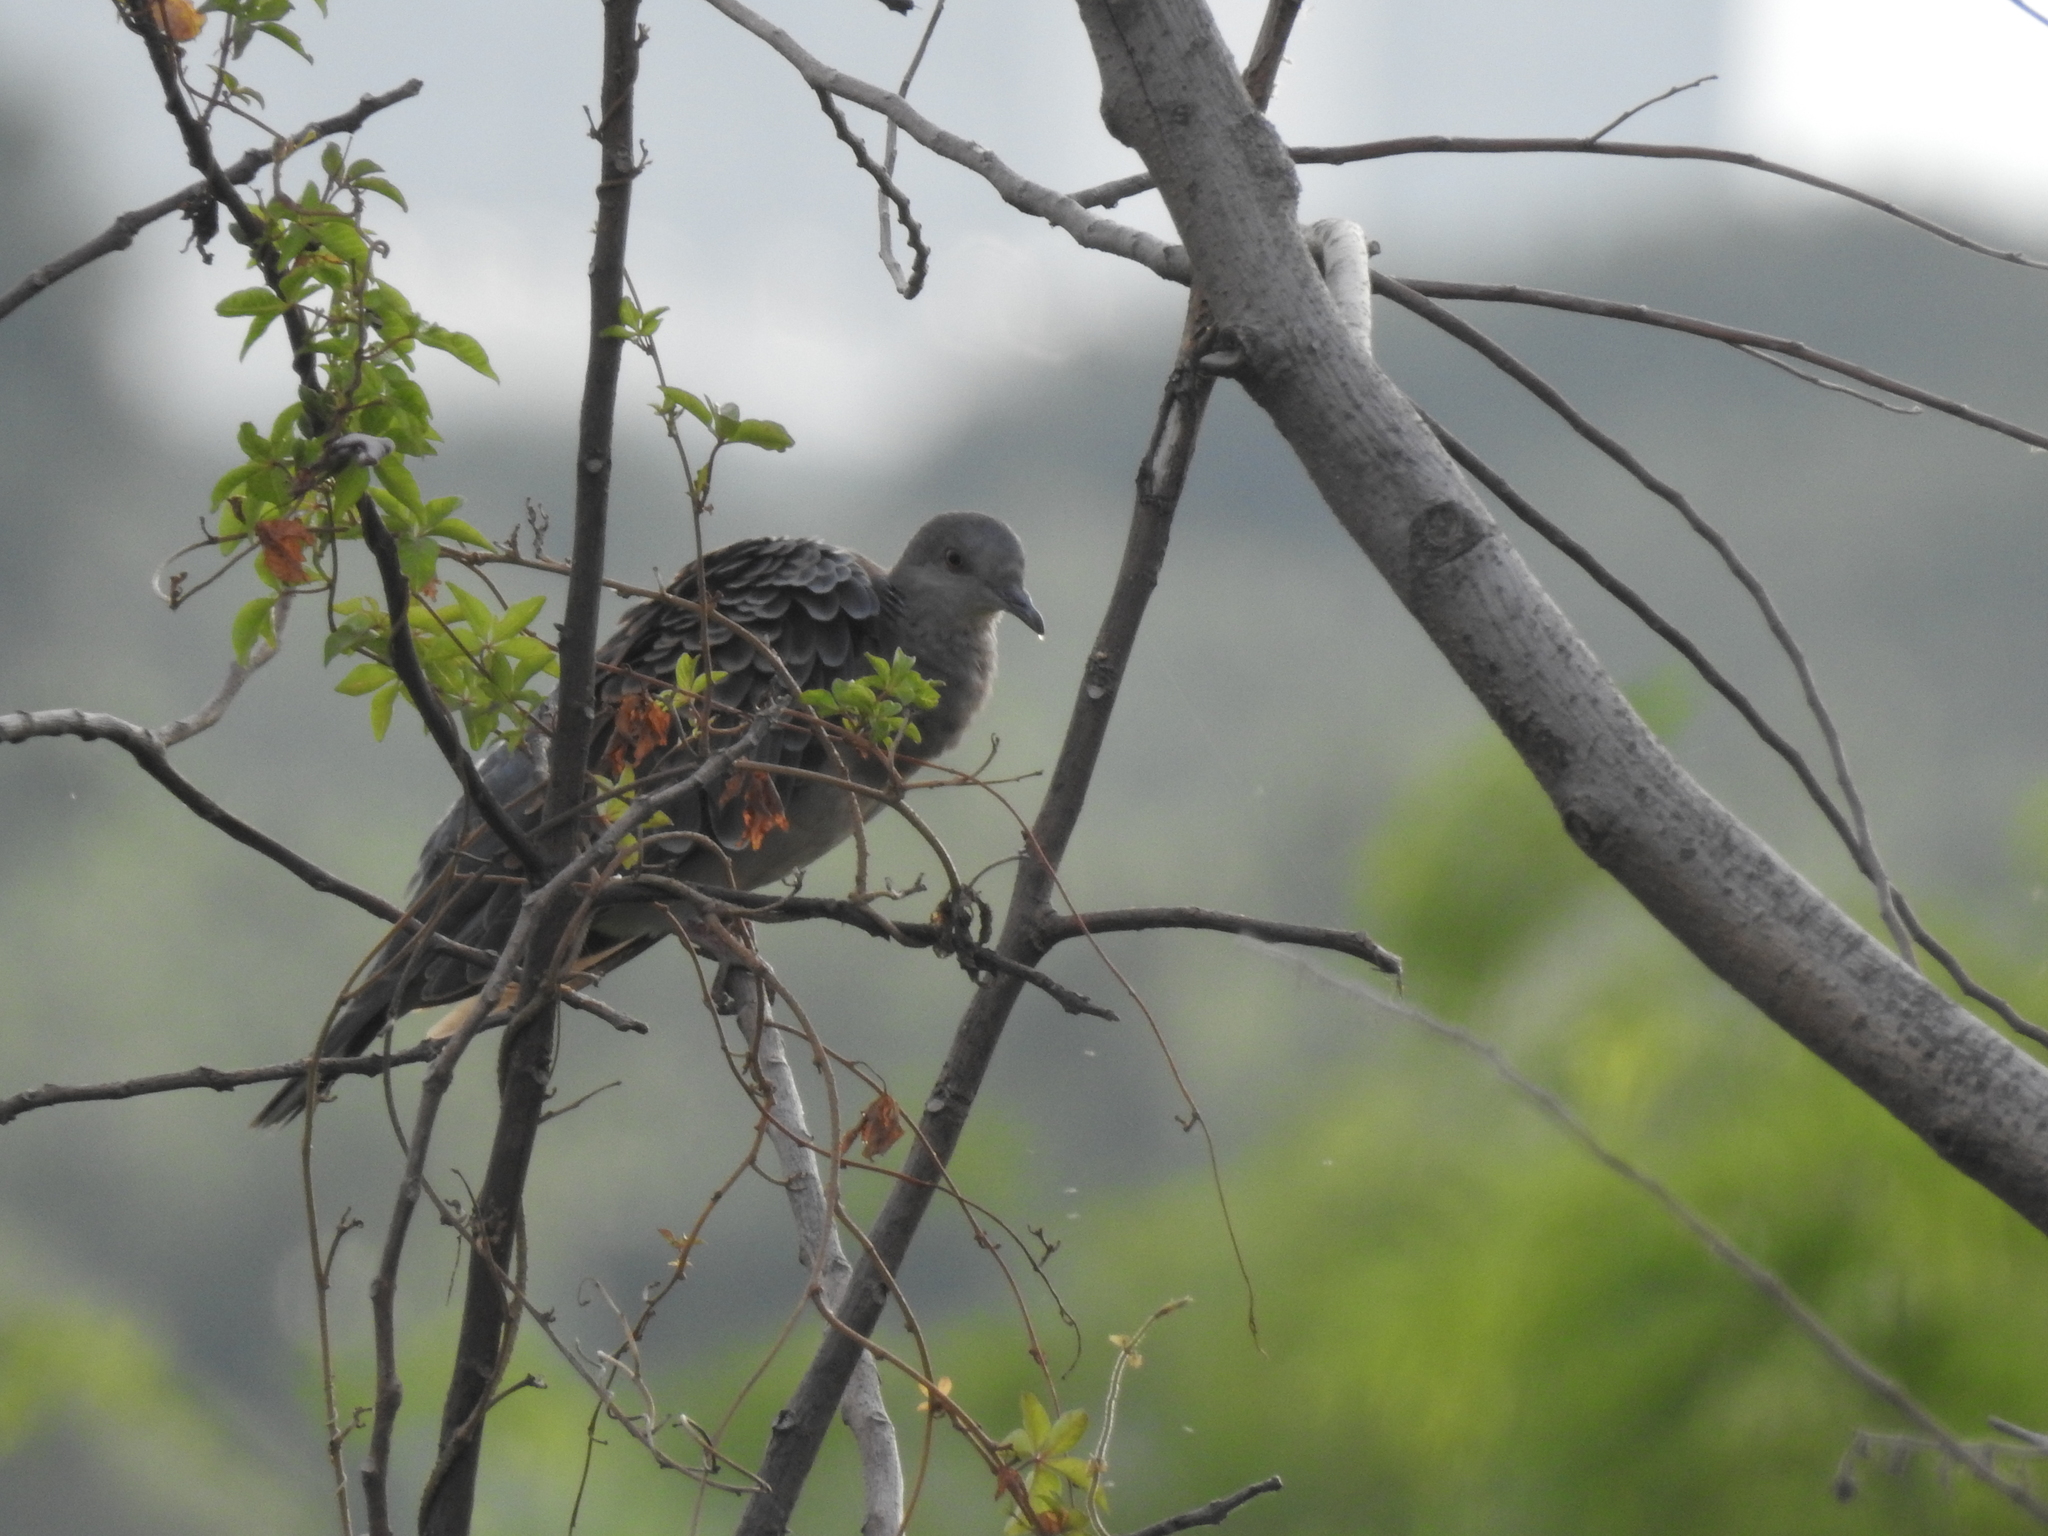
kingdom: Animalia
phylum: Chordata
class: Aves
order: Columbiformes
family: Columbidae
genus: Streptopelia
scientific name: Streptopelia orientalis
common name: Oriental turtle dove
